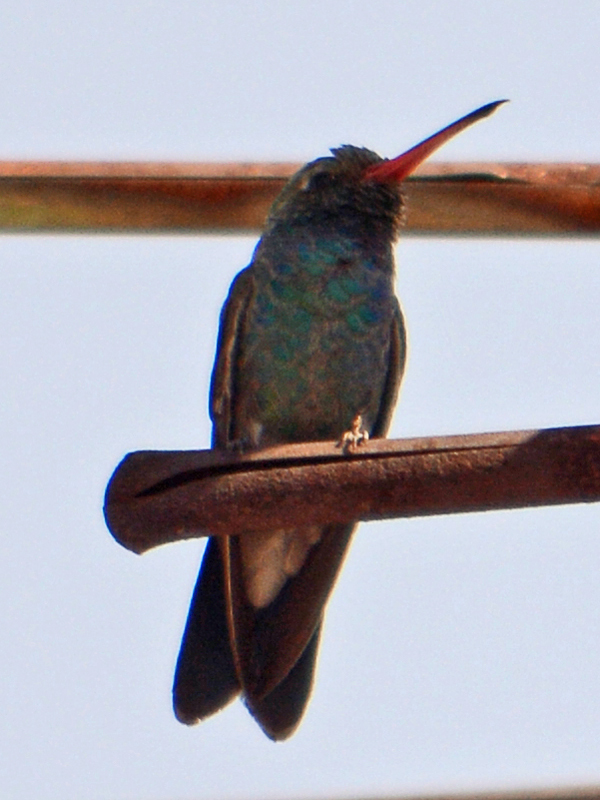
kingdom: Animalia
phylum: Chordata
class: Aves
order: Apodiformes
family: Trochilidae
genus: Cynanthus
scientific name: Cynanthus latirostris
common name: Broad-billed hummingbird
